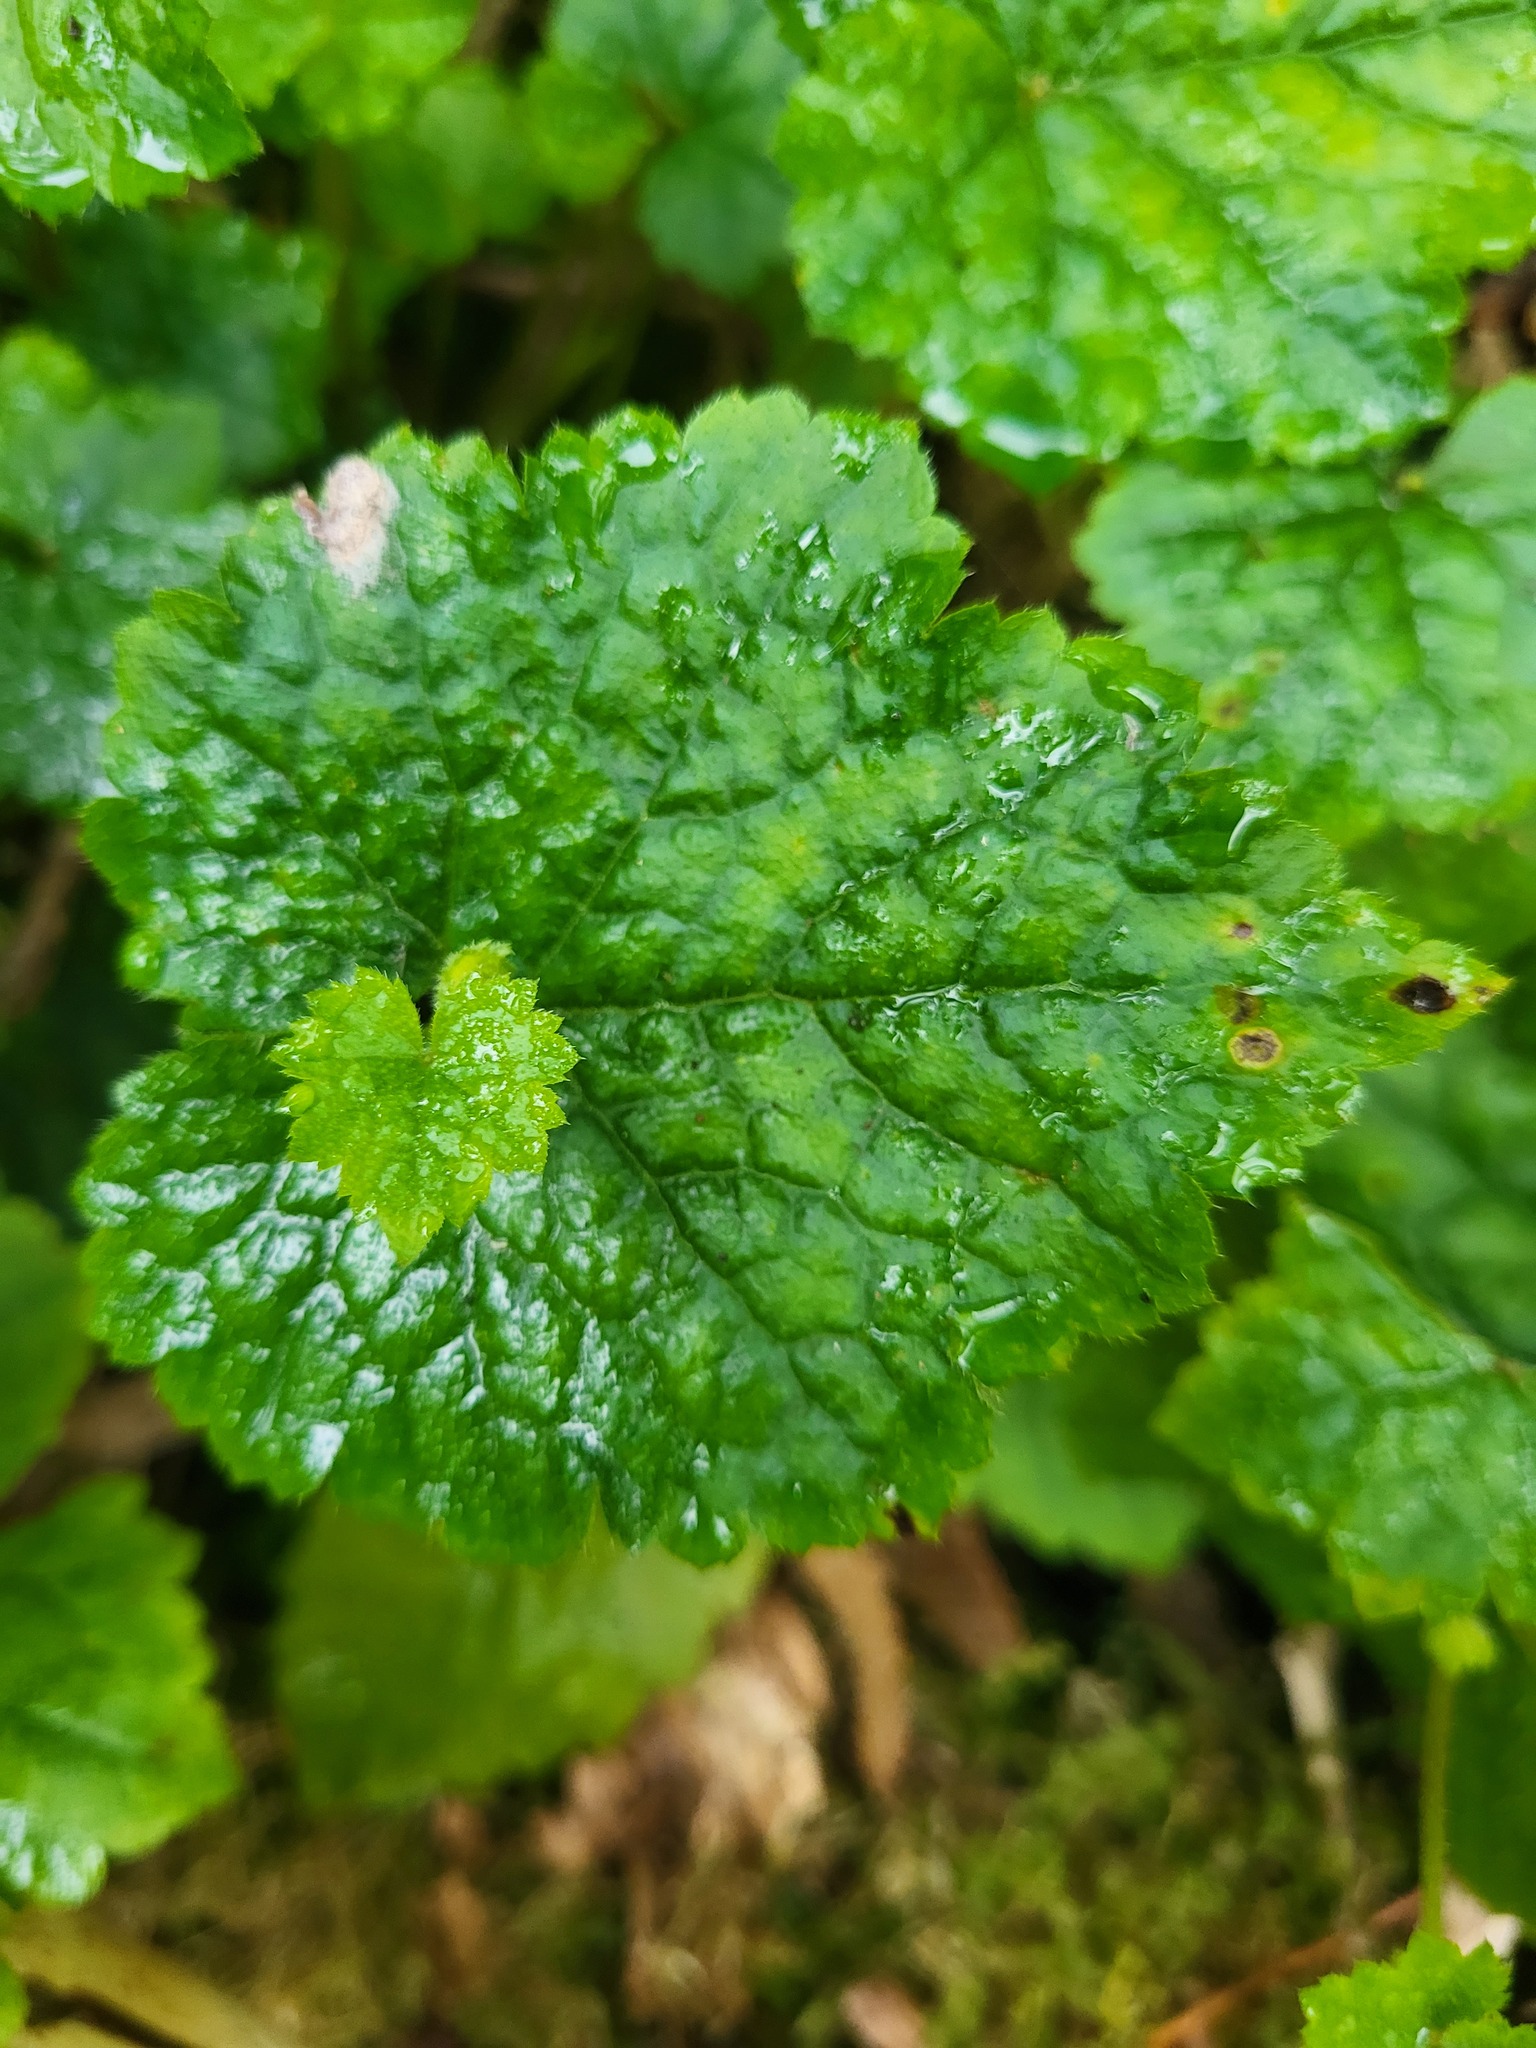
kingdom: Plantae
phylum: Tracheophyta
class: Magnoliopsida
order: Saxifragales
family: Saxifragaceae
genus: Tolmiea
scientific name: Tolmiea menziesii
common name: Pick-a-back-plant
